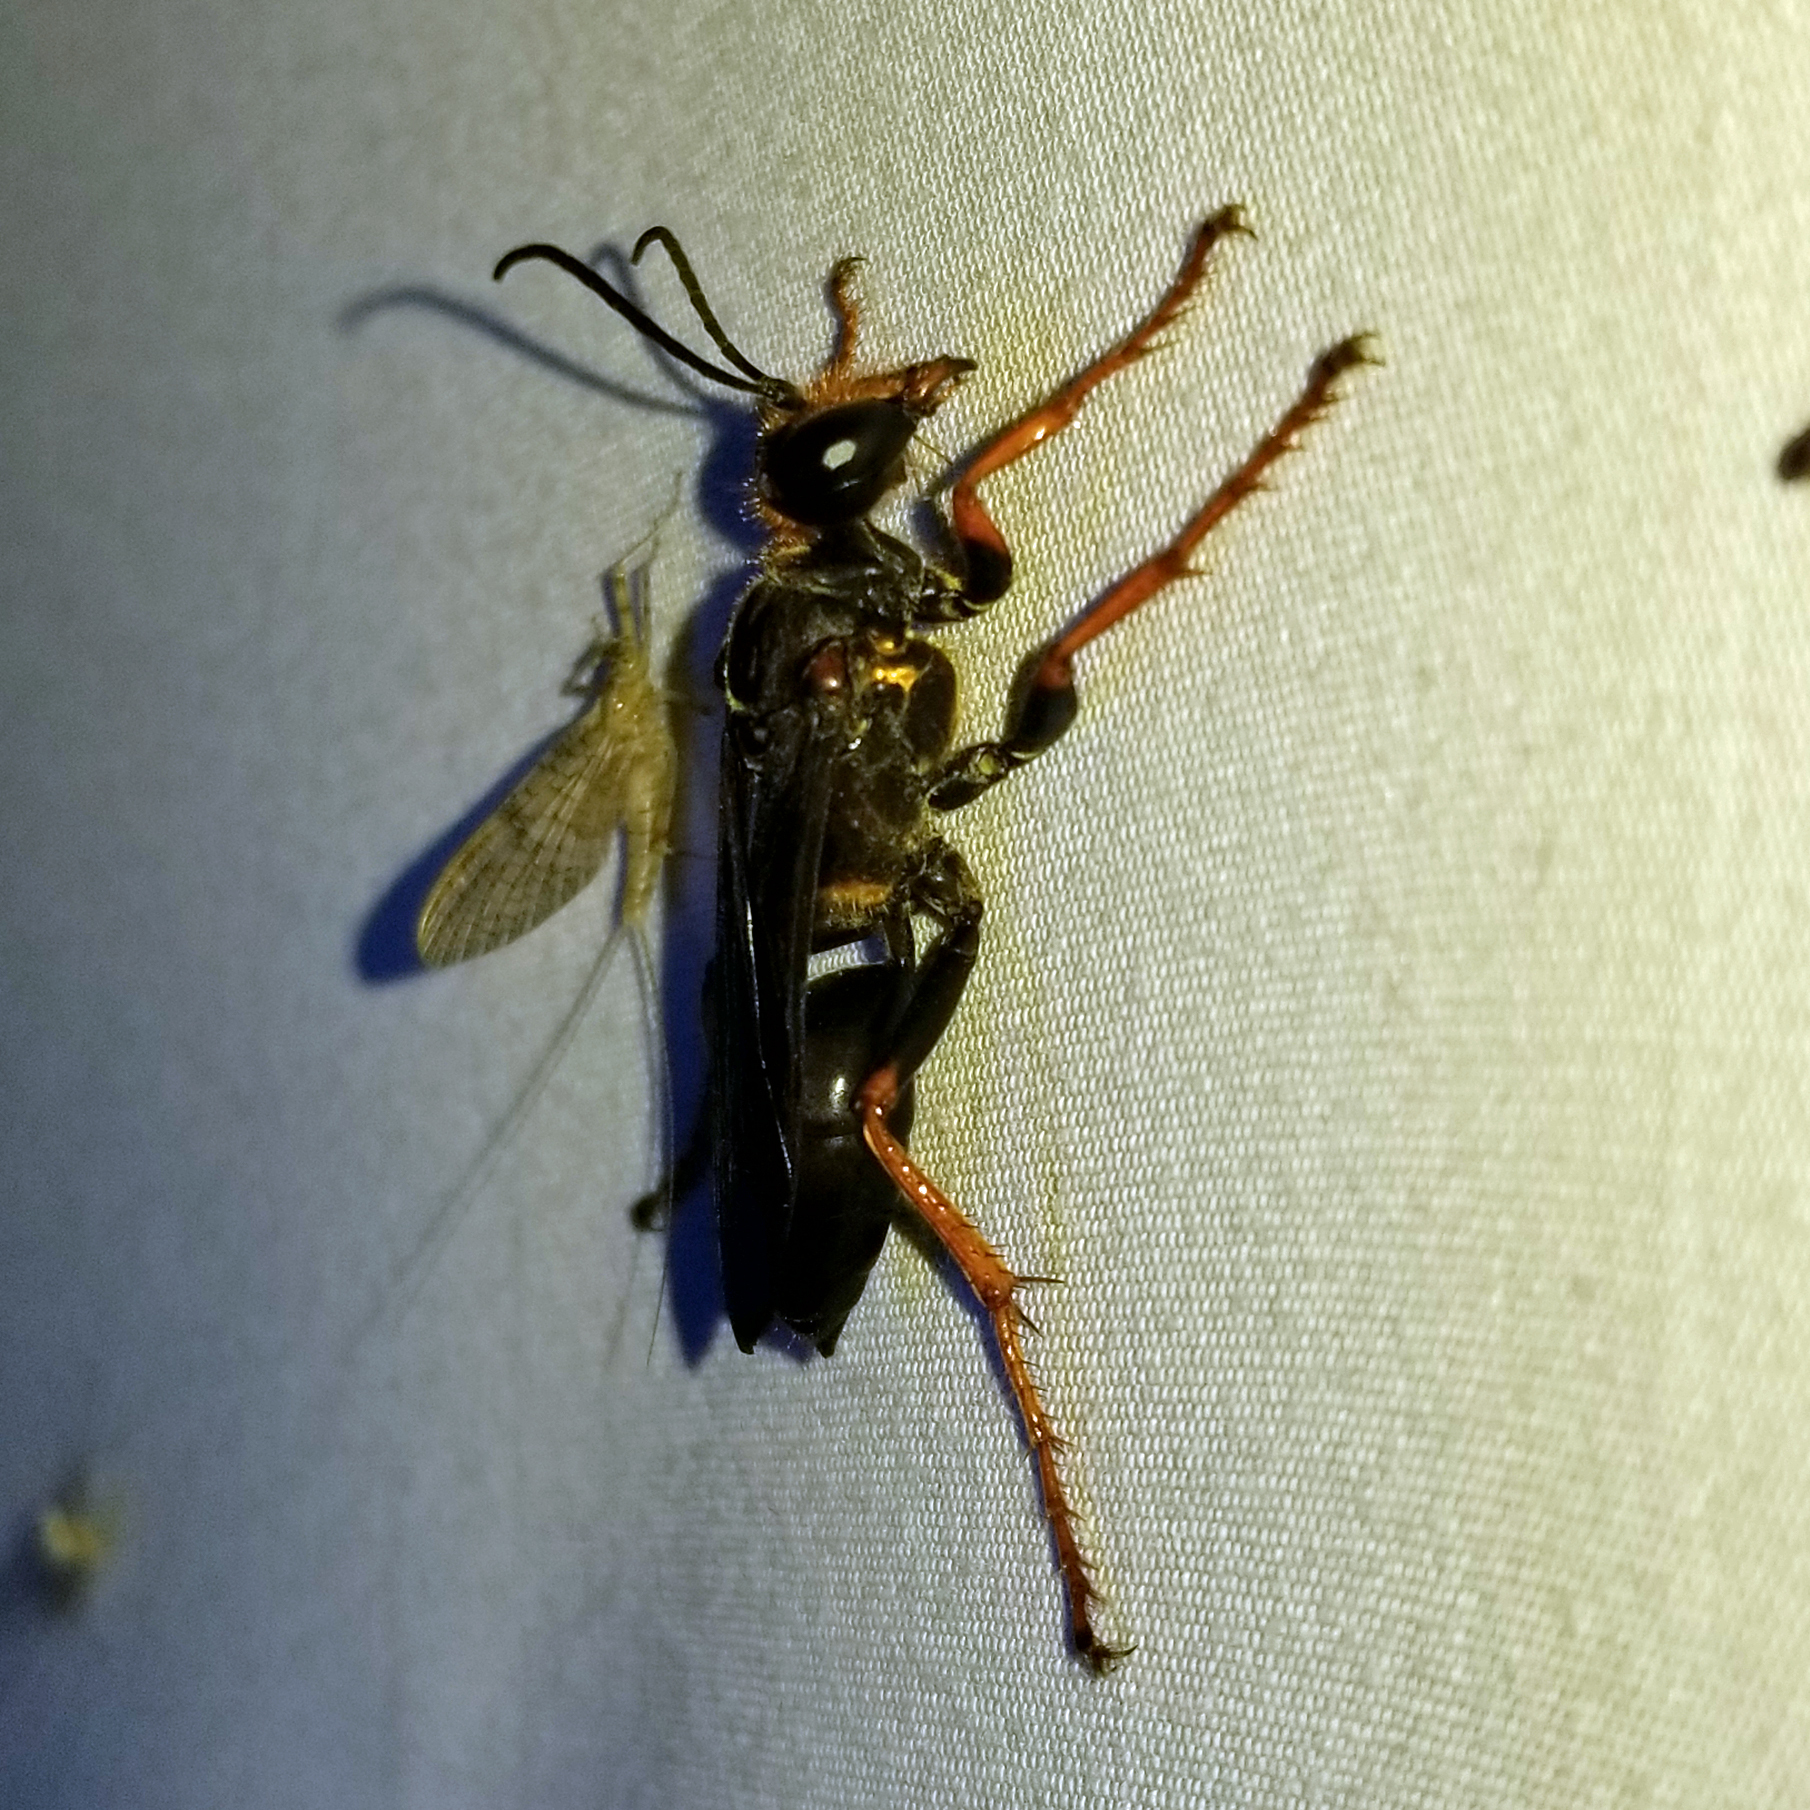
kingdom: Animalia
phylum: Arthropoda
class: Insecta
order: Hymenoptera
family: Sphecidae
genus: Sphex
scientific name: Sphex nudus
